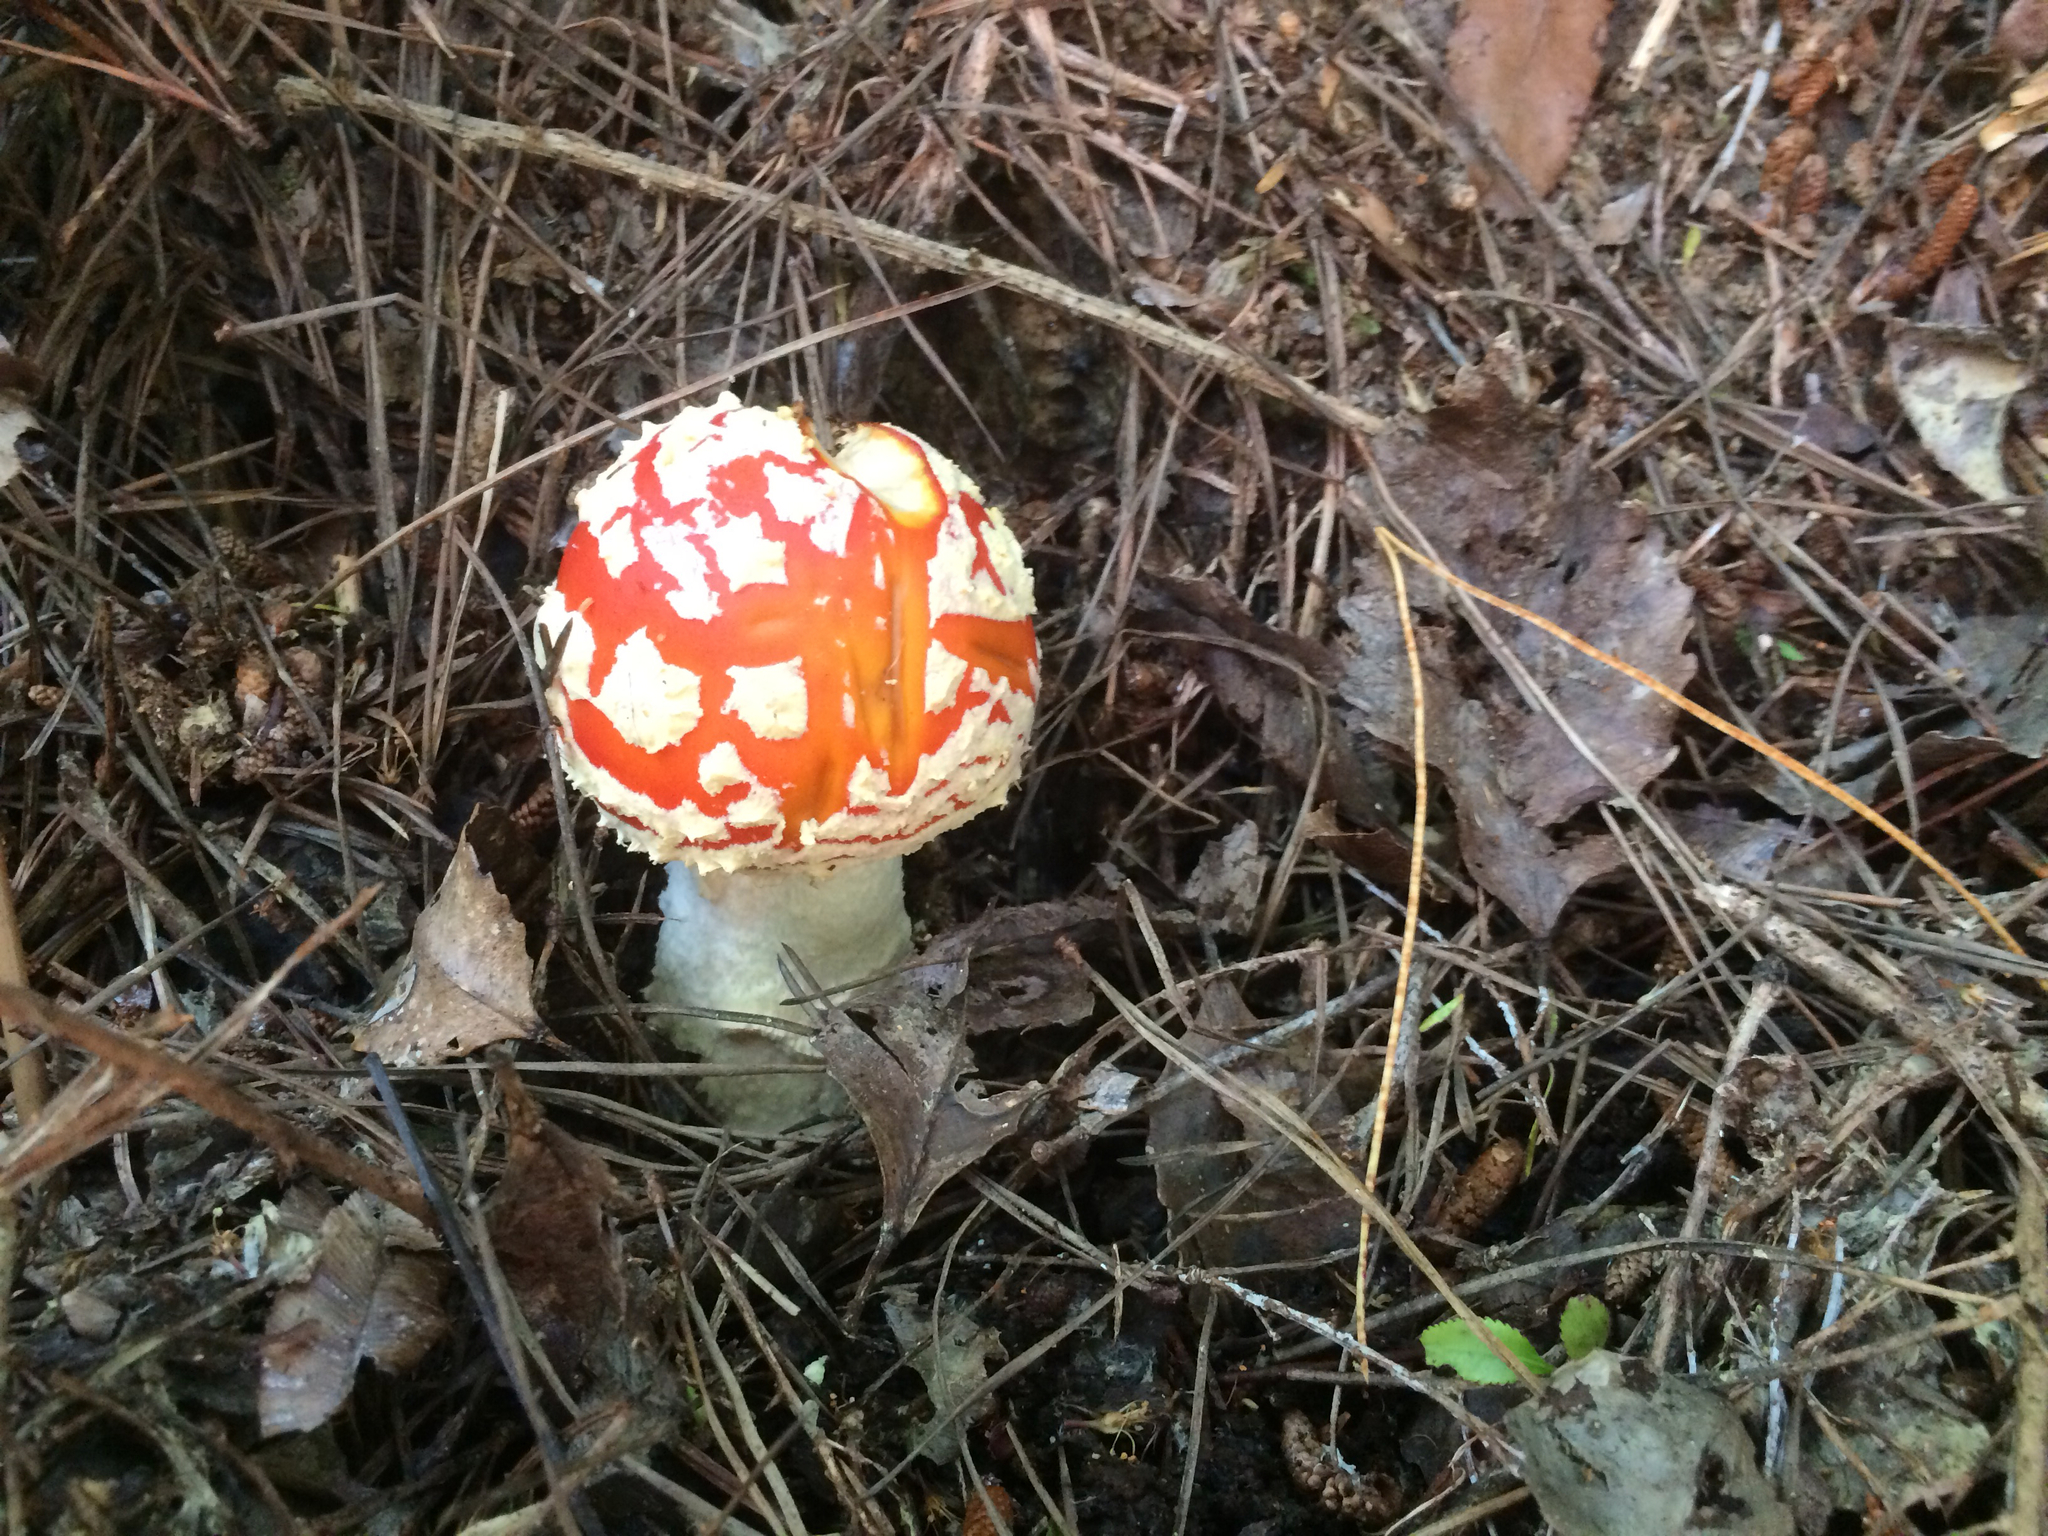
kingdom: Fungi
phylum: Basidiomycota
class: Agaricomycetes
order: Agaricales
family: Amanitaceae
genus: Amanita
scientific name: Amanita muscaria
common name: Fly agaric
